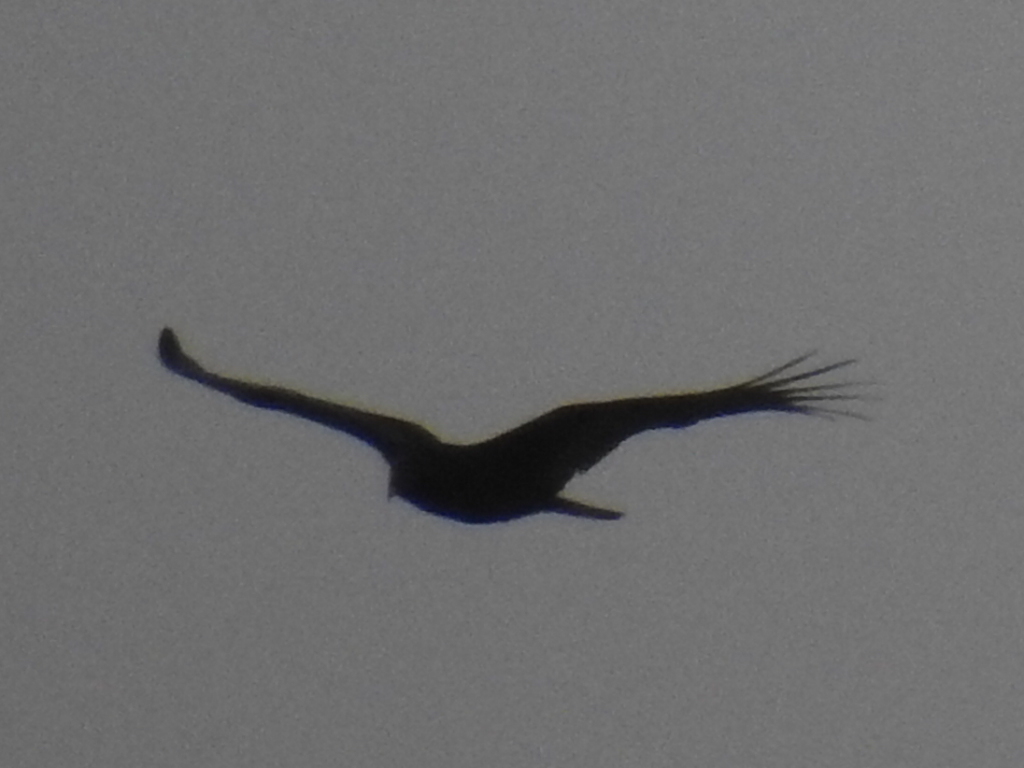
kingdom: Animalia
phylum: Chordata
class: Aves
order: Accipitriformes
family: Cathartidae
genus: Cathartes
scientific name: Cathartes aura
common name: Turkey vulture
